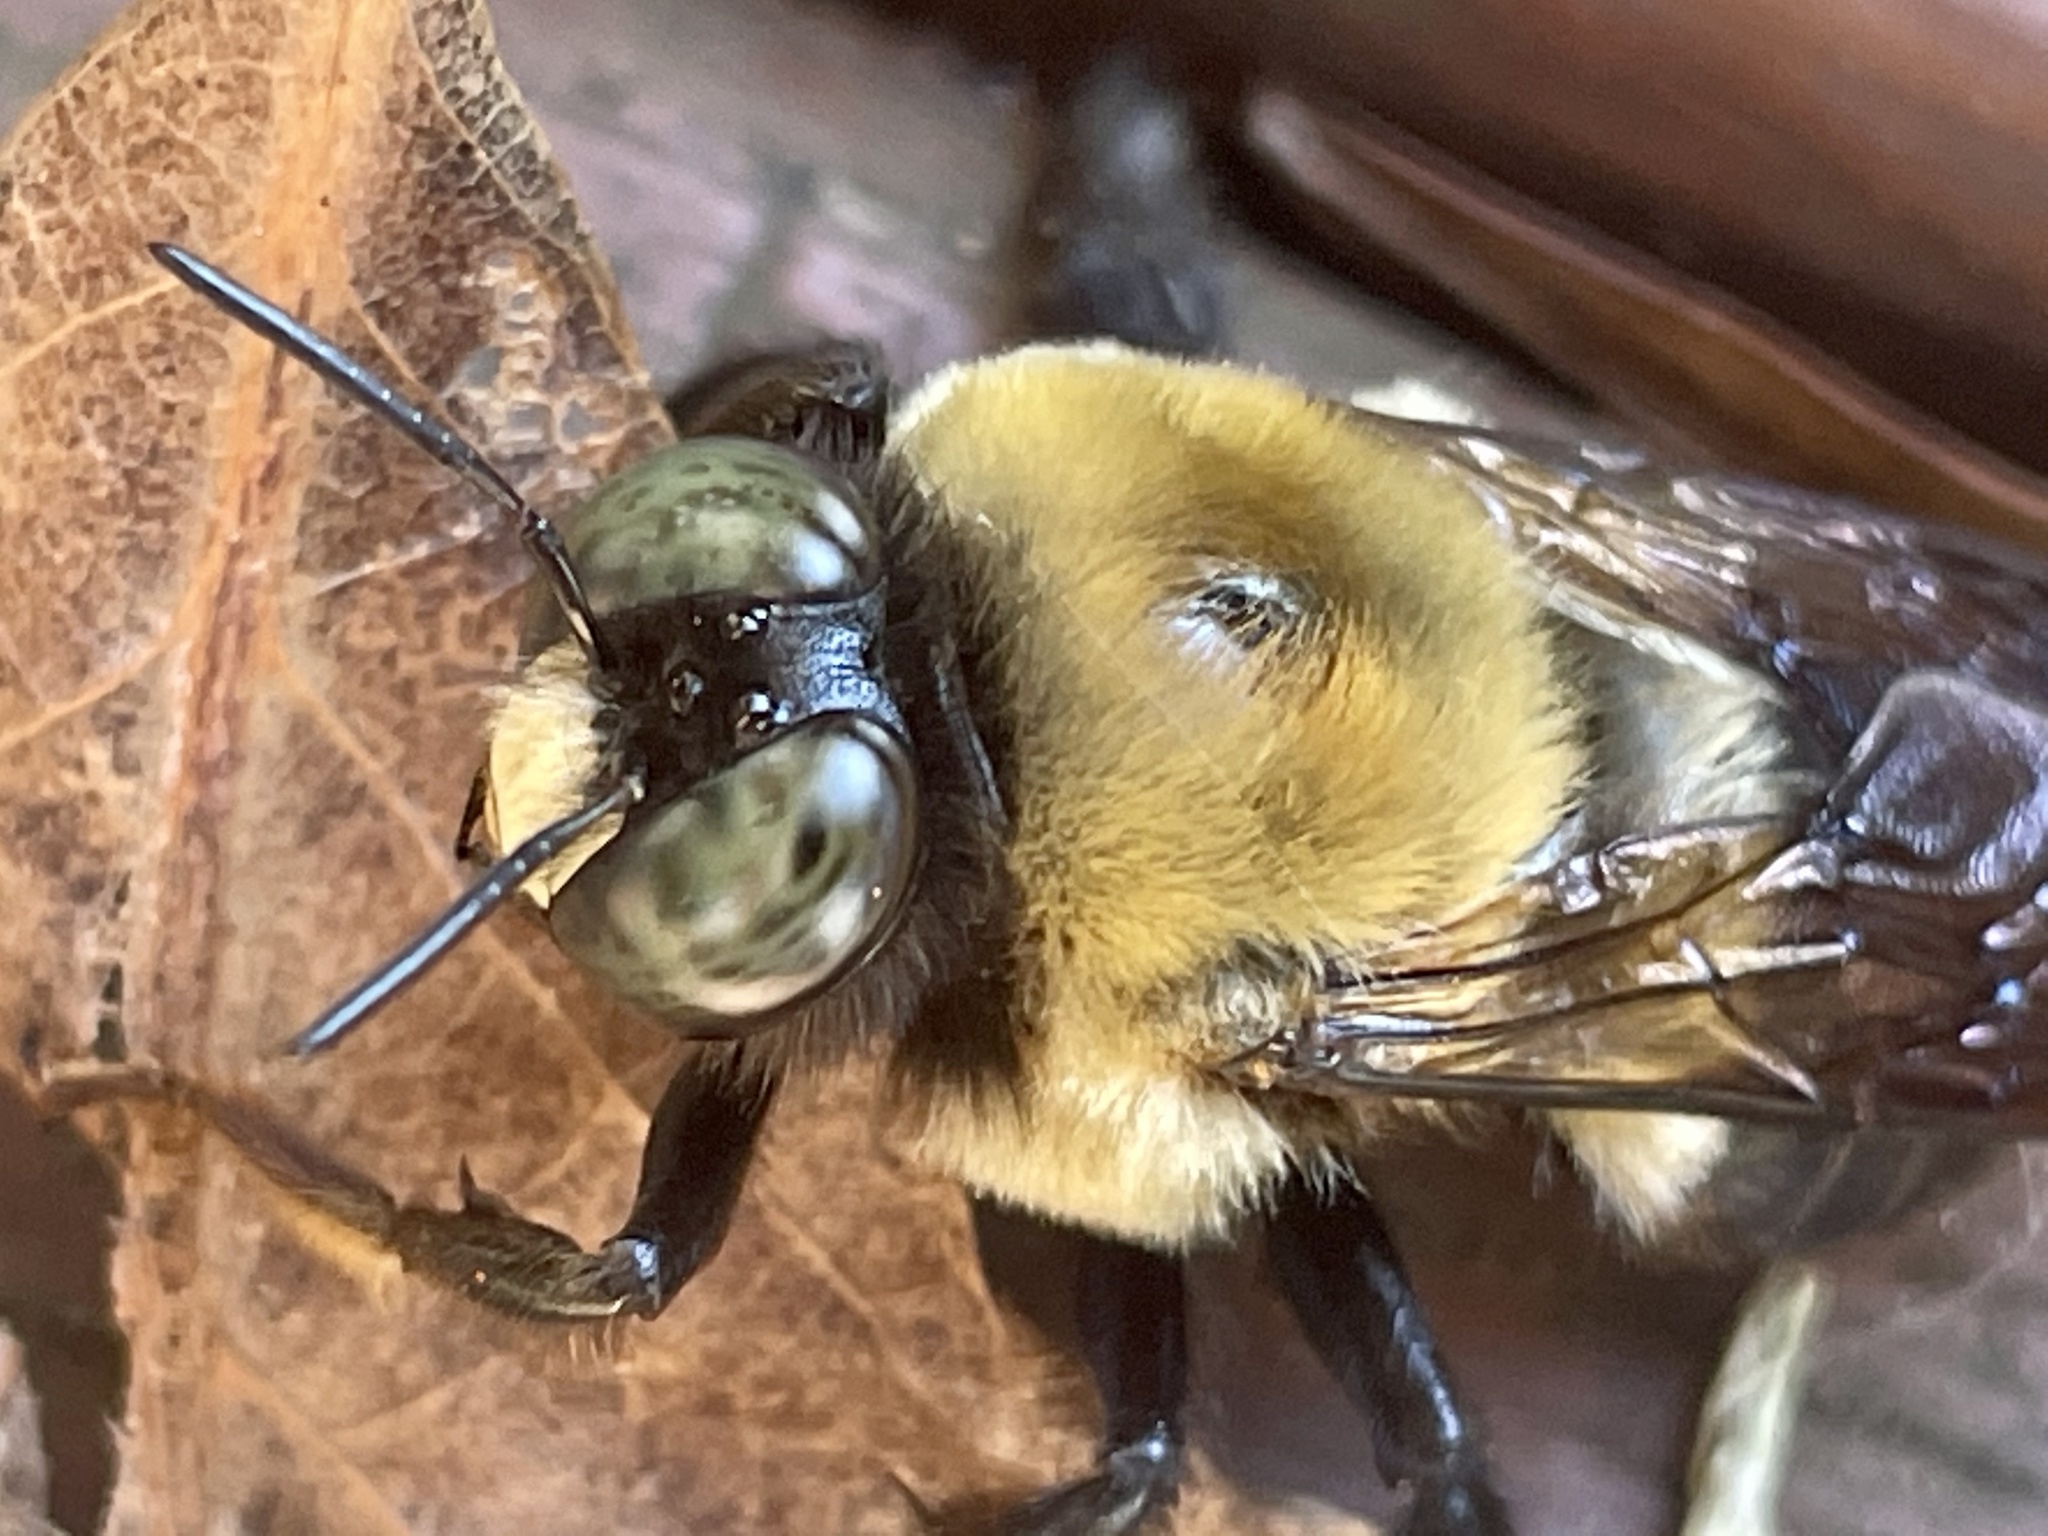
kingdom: Animalia
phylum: Arthropoda
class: Insecta
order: Hymenoptera
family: Apidae
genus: Xylocopa
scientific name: Xylocopa virginica
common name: Carpenter bee
